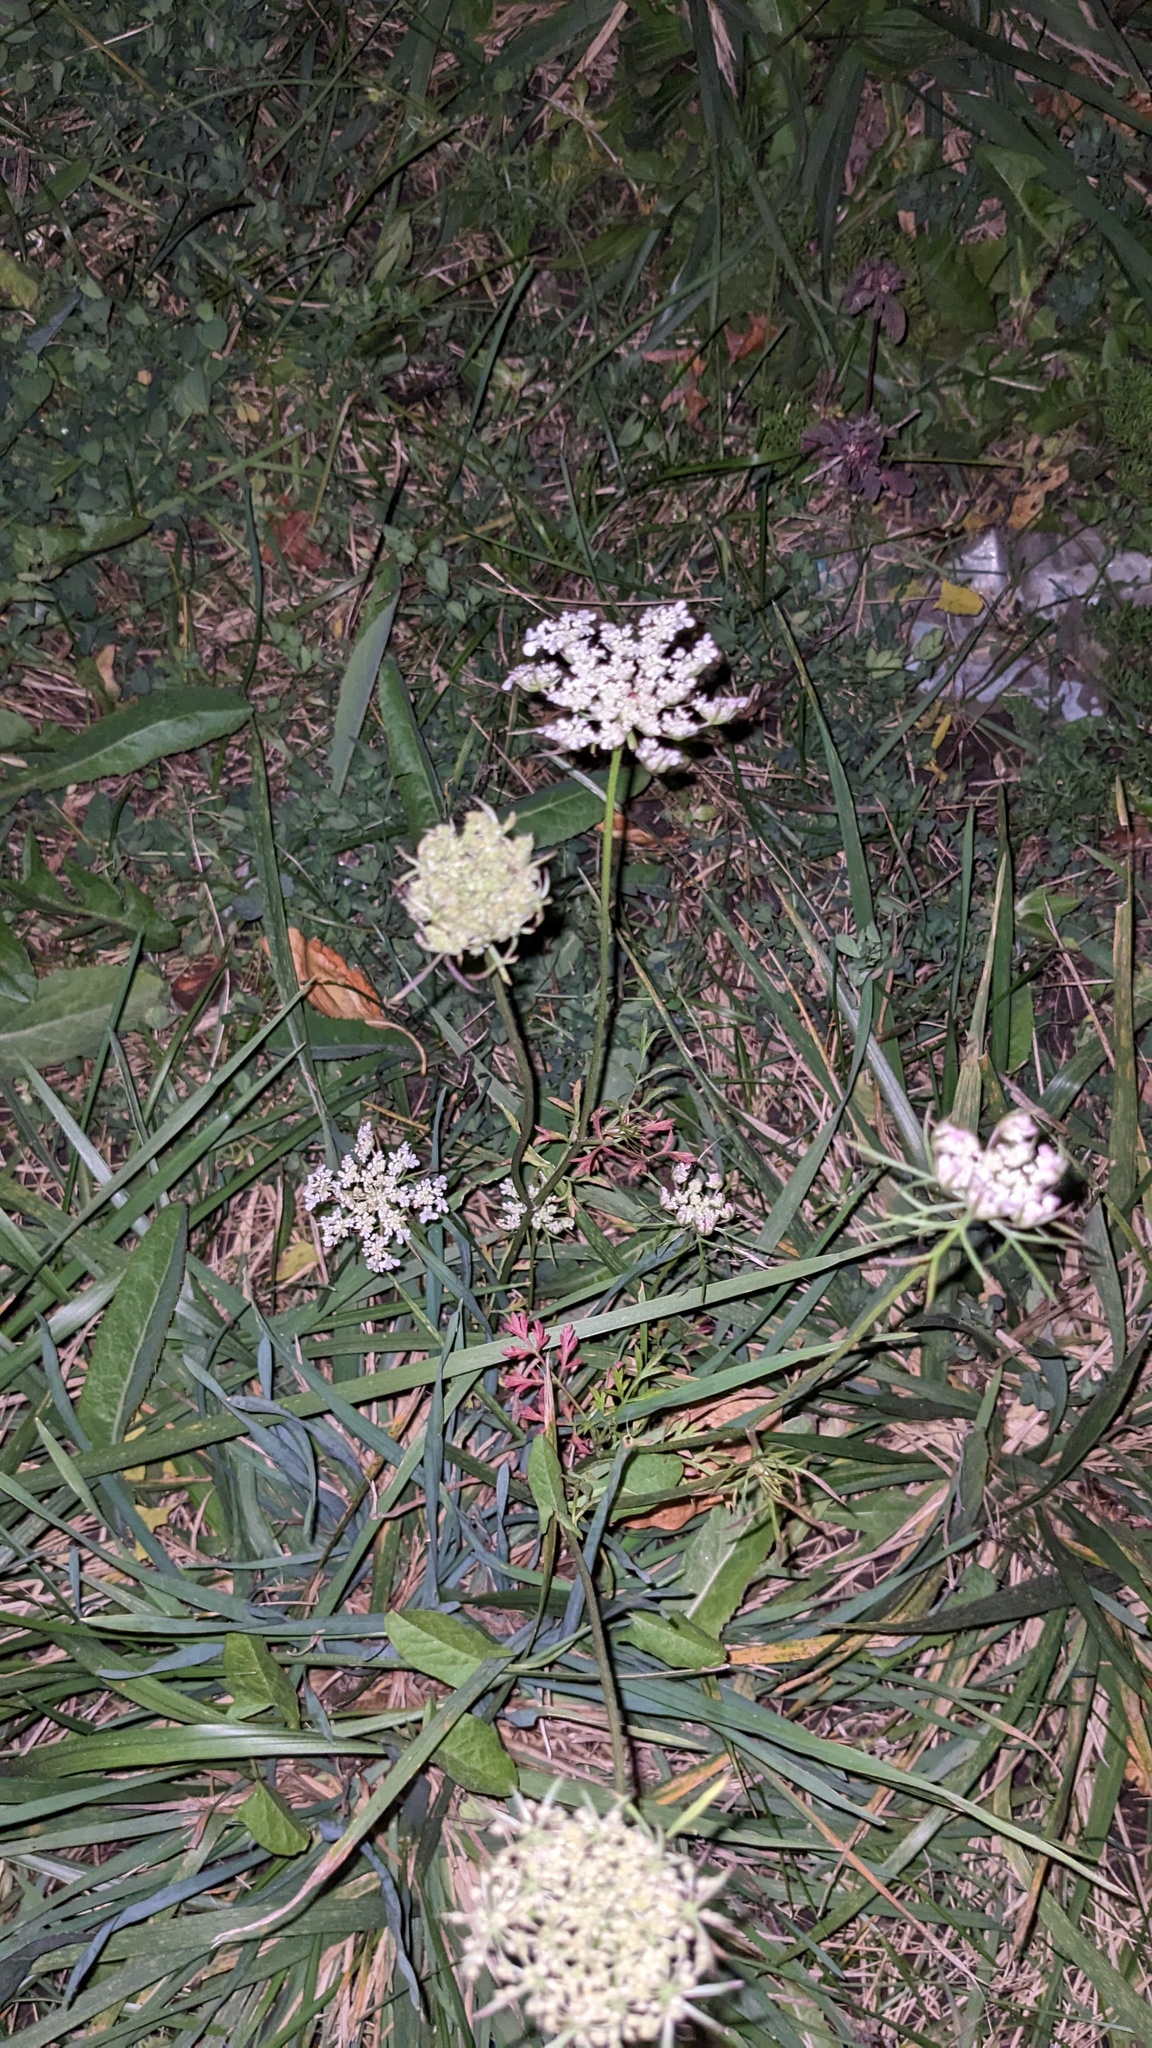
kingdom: Plantae
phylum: Tracheophyta
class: Magnoliopsida
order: Apiales
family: Apiaceae
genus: Daucus
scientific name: Daucus carota
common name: Wild carrot
